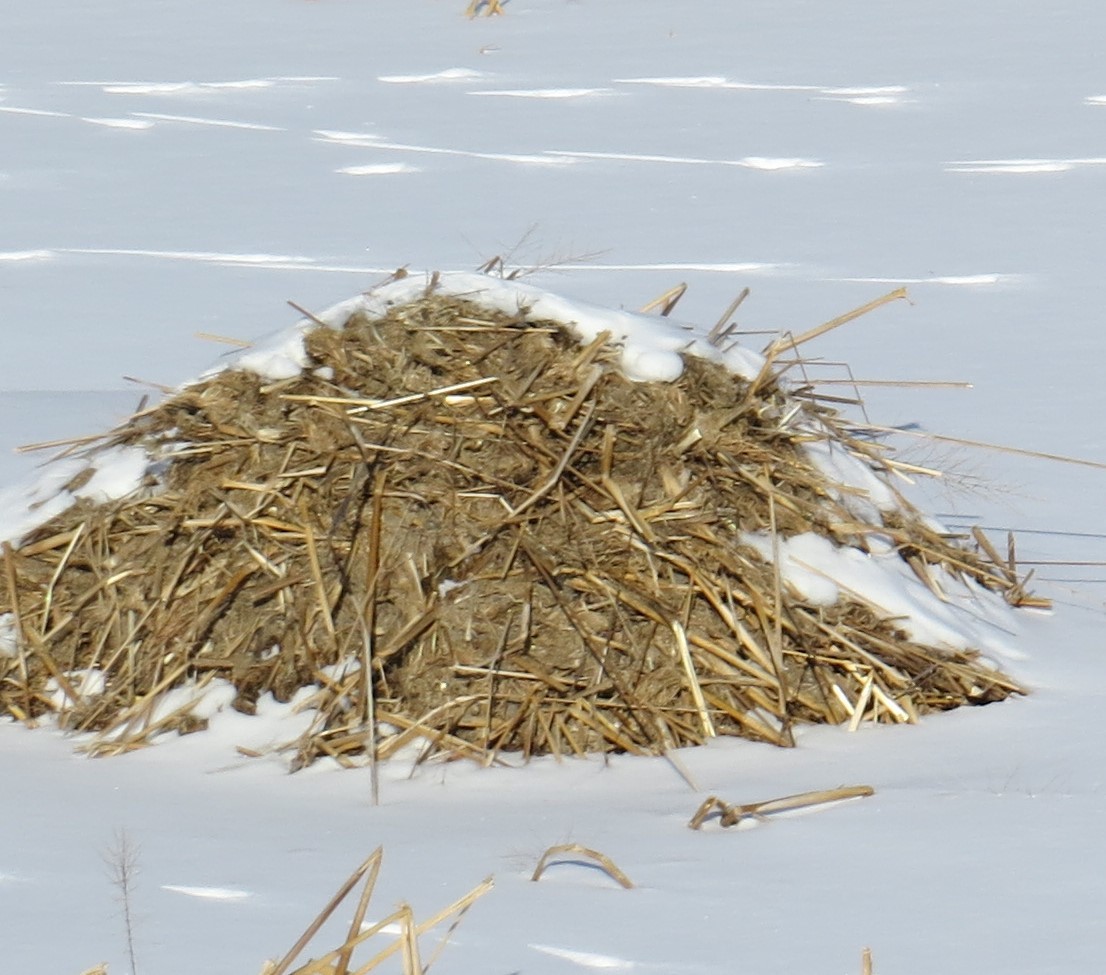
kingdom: Animalia
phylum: Chordata
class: Mammalia
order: Rodentia
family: Cricetidae
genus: Ondatra
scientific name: Ondatra zibethicus
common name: Muskrat
